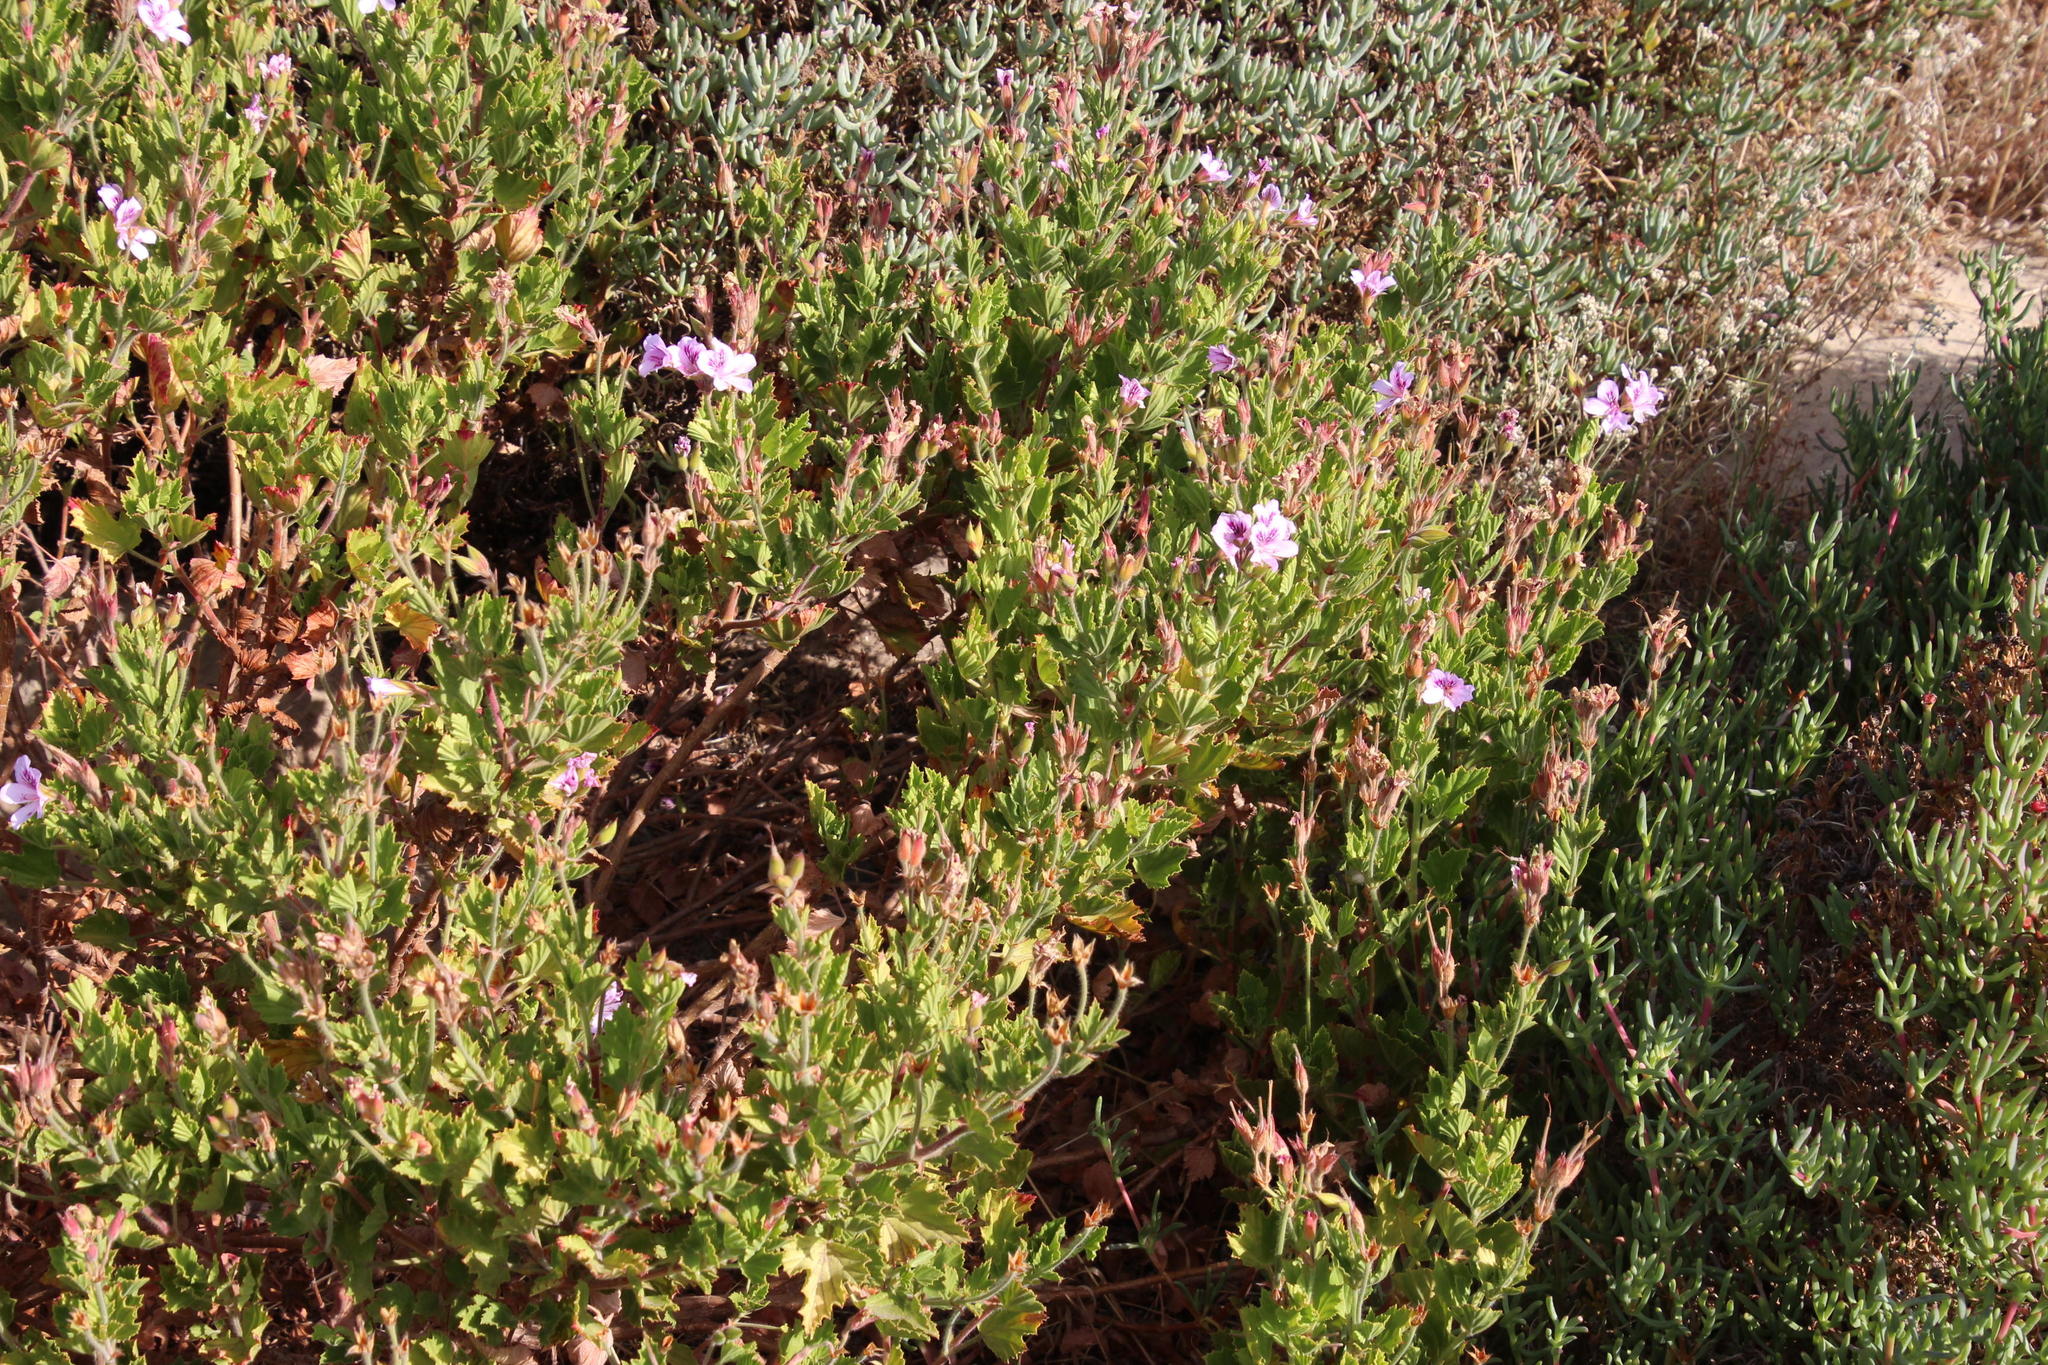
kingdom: Plantae
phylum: Tracheophyta
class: Magnoliopsida
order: Geraniales
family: Geraniaceae
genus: Pelargonium
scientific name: Pelargonium betulinum
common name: Birch-leaf pelargonium
